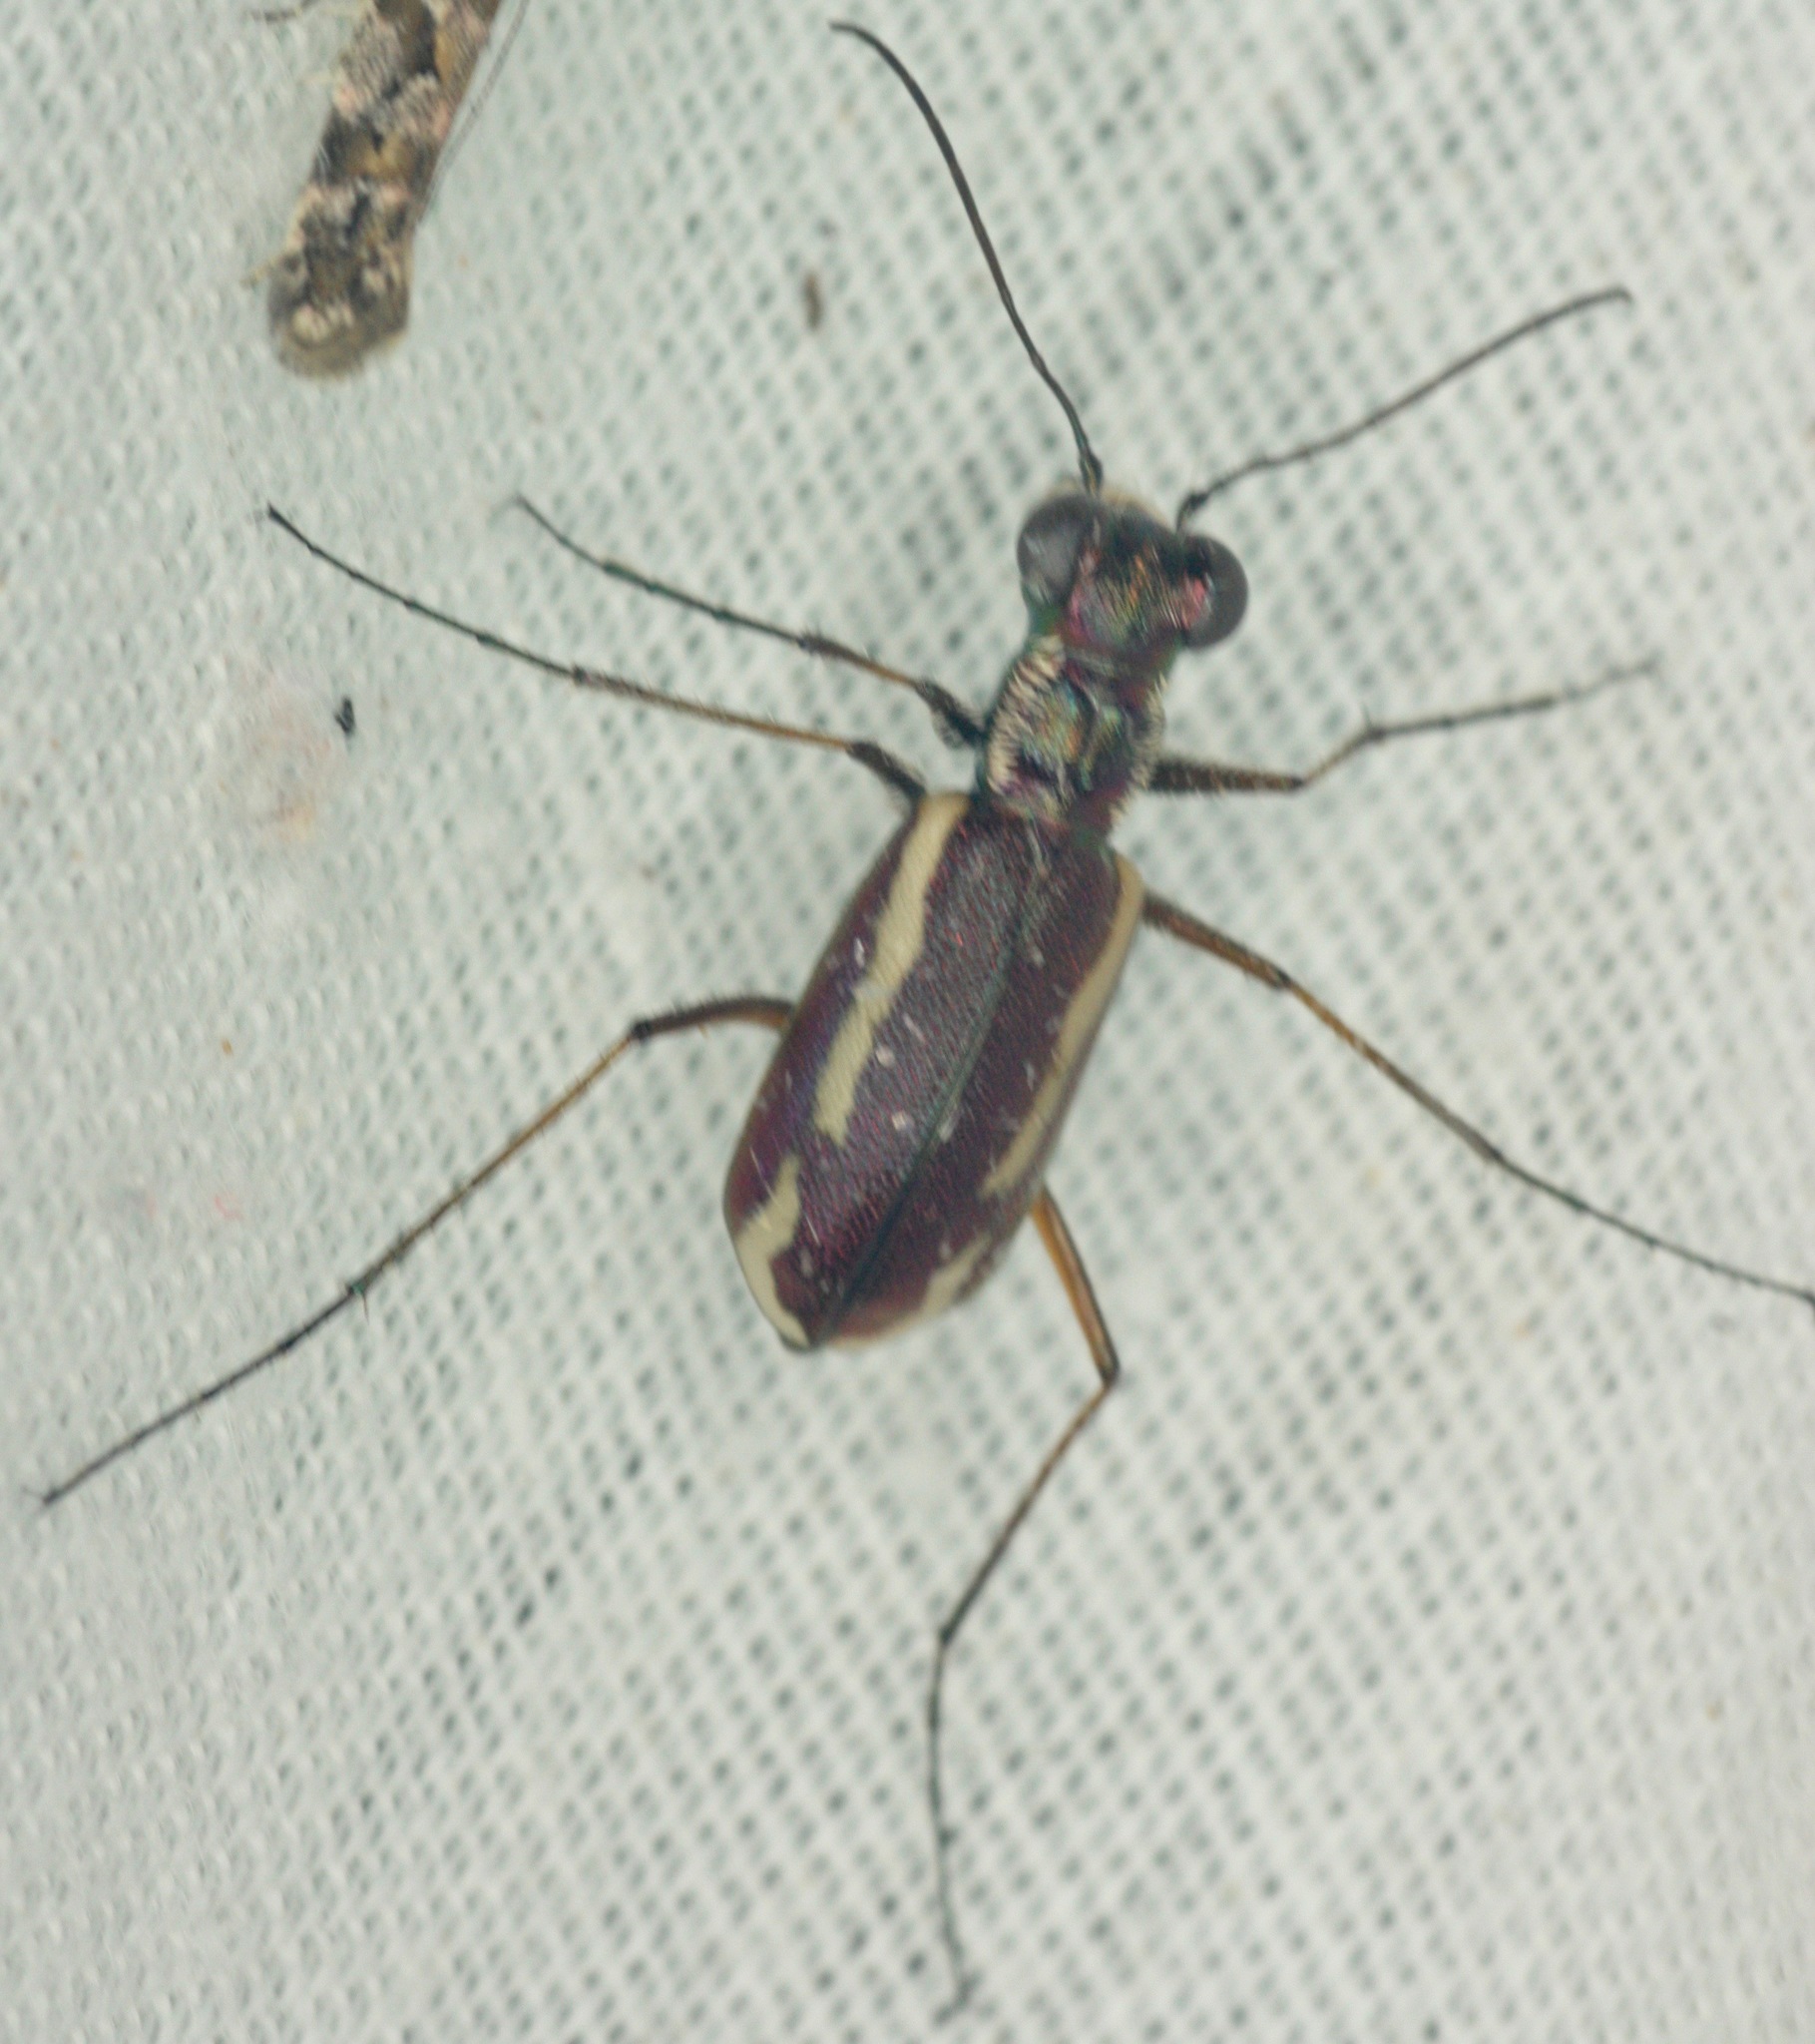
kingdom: Animalia
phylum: Arthropoda
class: Insecta
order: Coleoptera
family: Carabidae
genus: Cylindera
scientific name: Cylindera lemniscata
